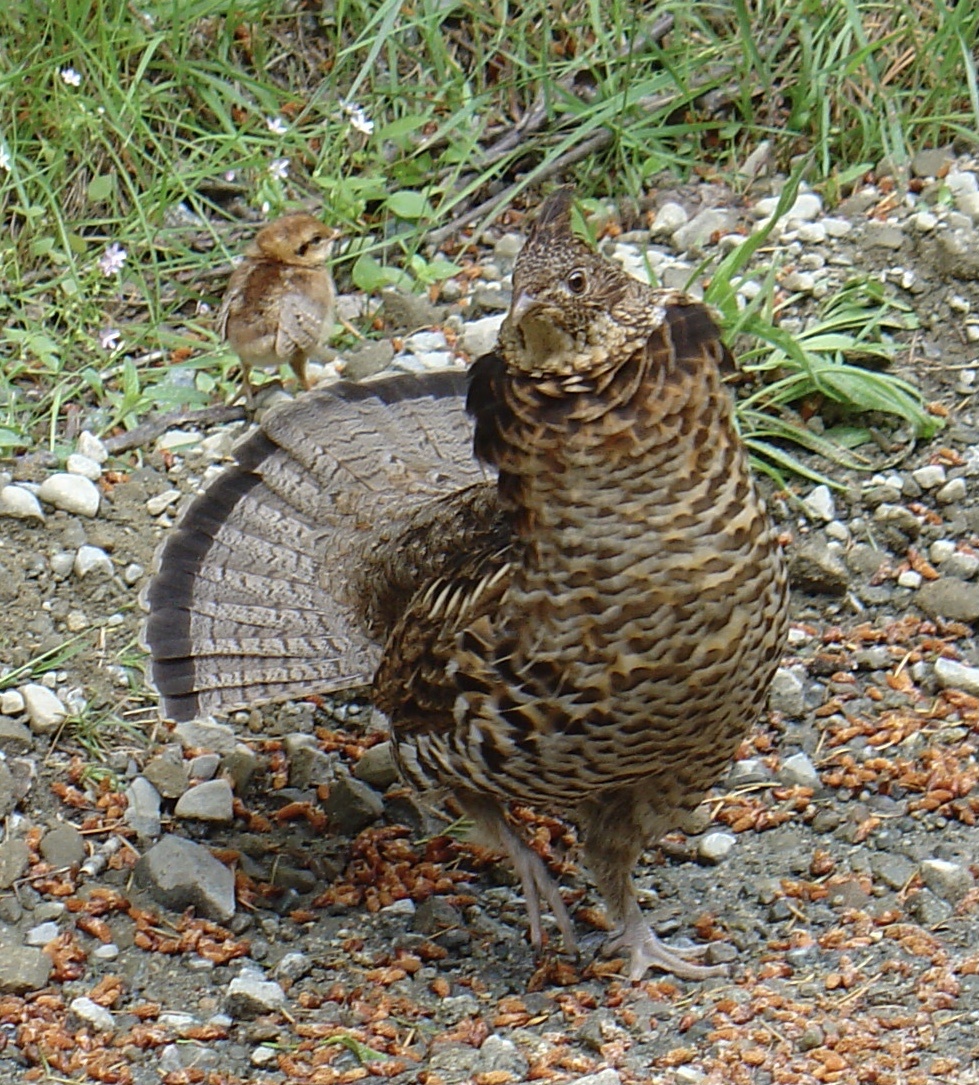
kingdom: Animalia
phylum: Chordata
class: Aves
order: Galliformes
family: Phasianidae
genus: Bonasa
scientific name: Bonasa umbellus
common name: Ruffed grouse
